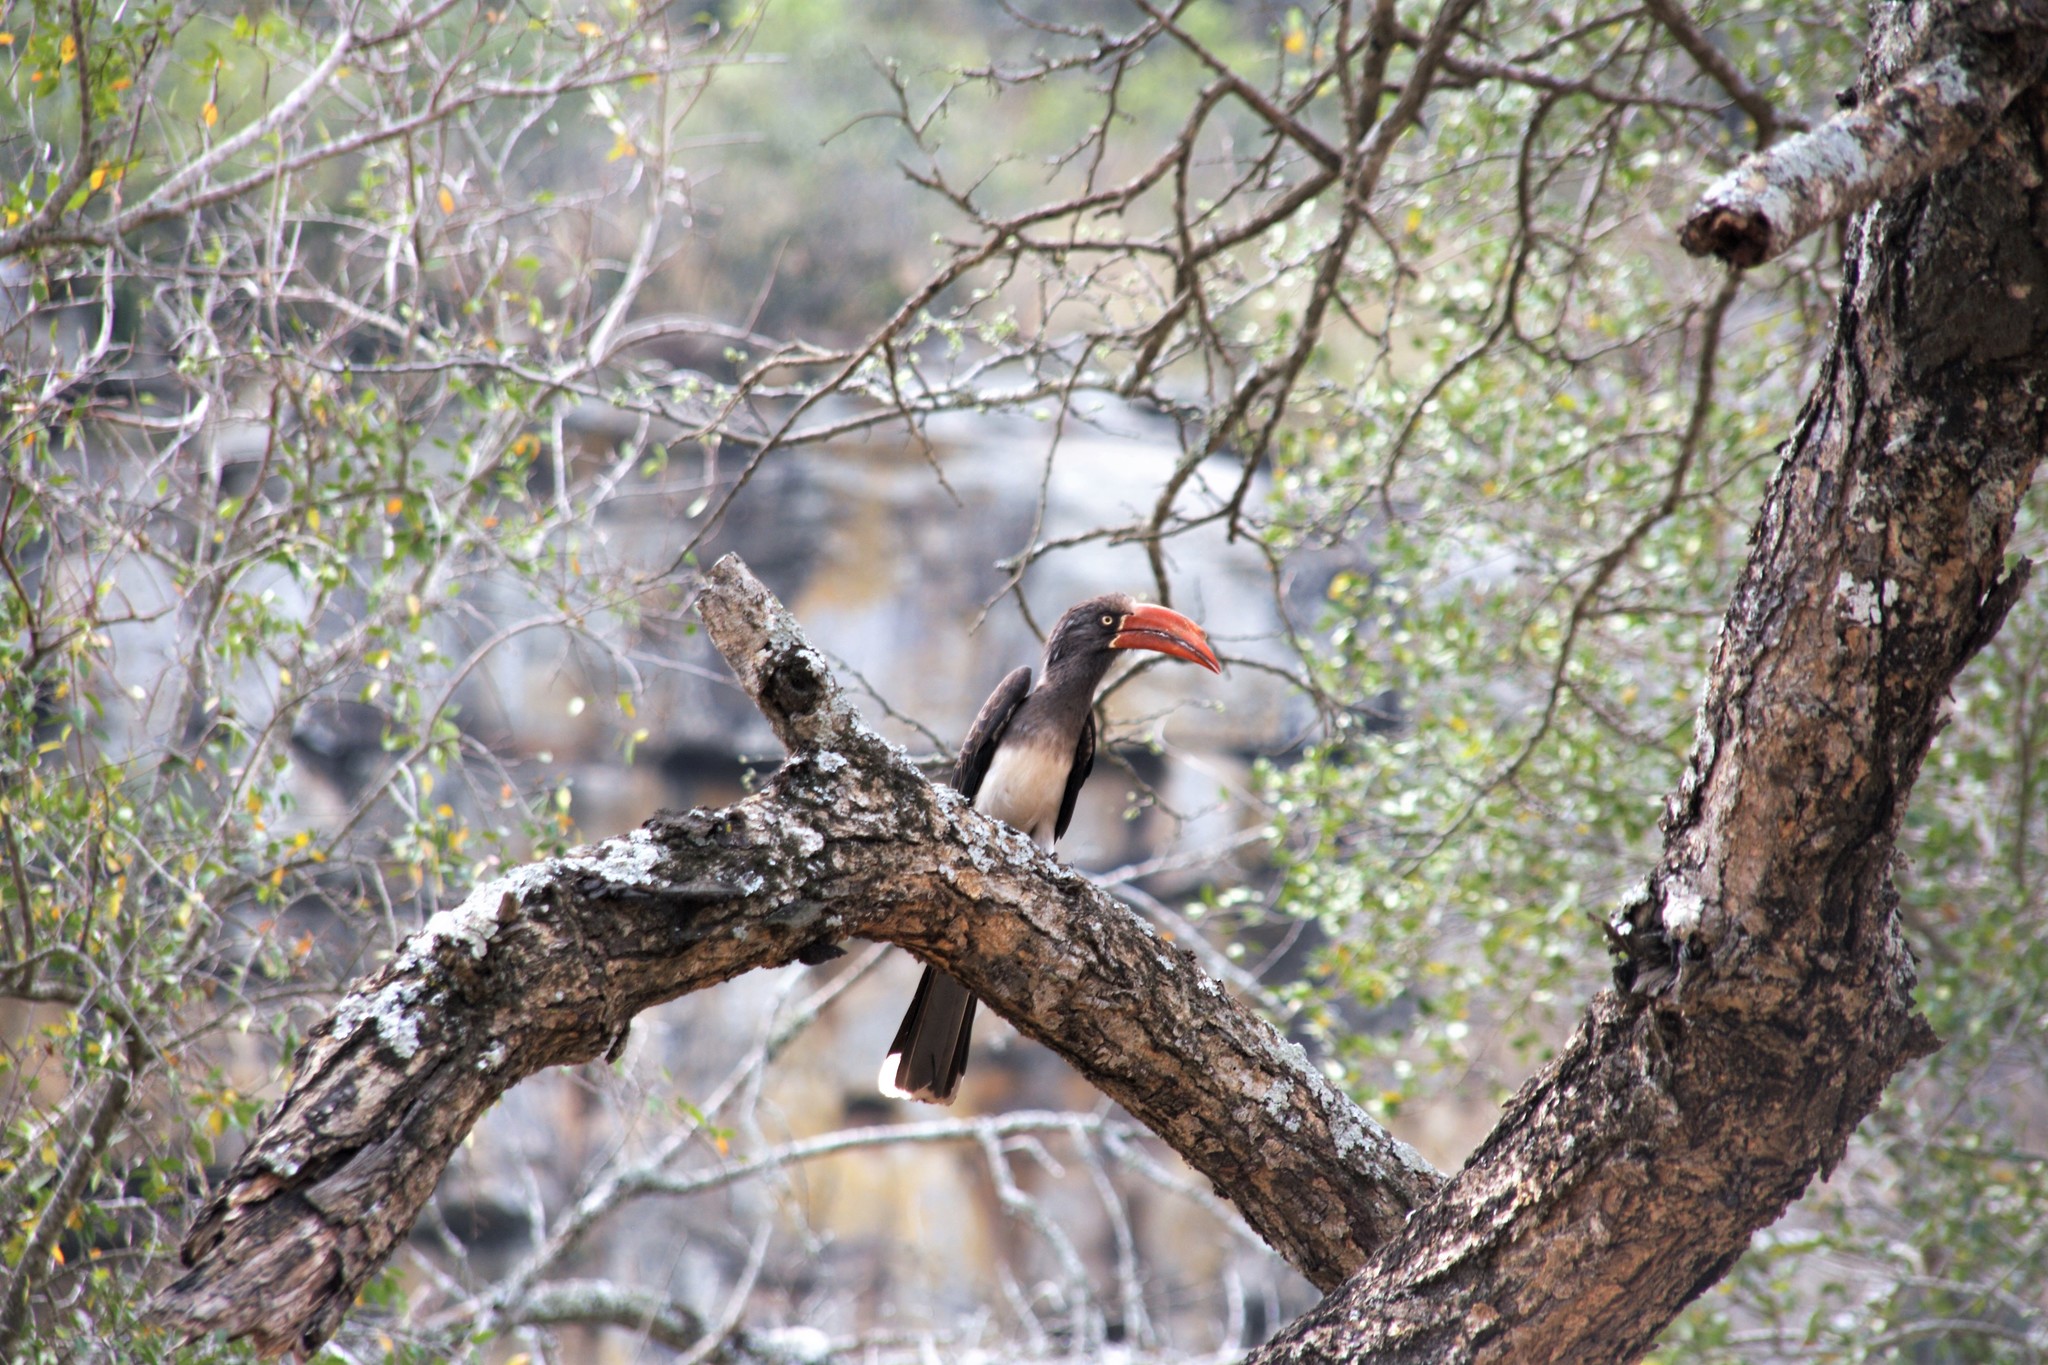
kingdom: Animalia
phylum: Chordata
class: Aves
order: Bucerotiformes
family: Bucerotidae
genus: Lophoceros
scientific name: Lophoceros alboterminatus
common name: Crowned hornbill
